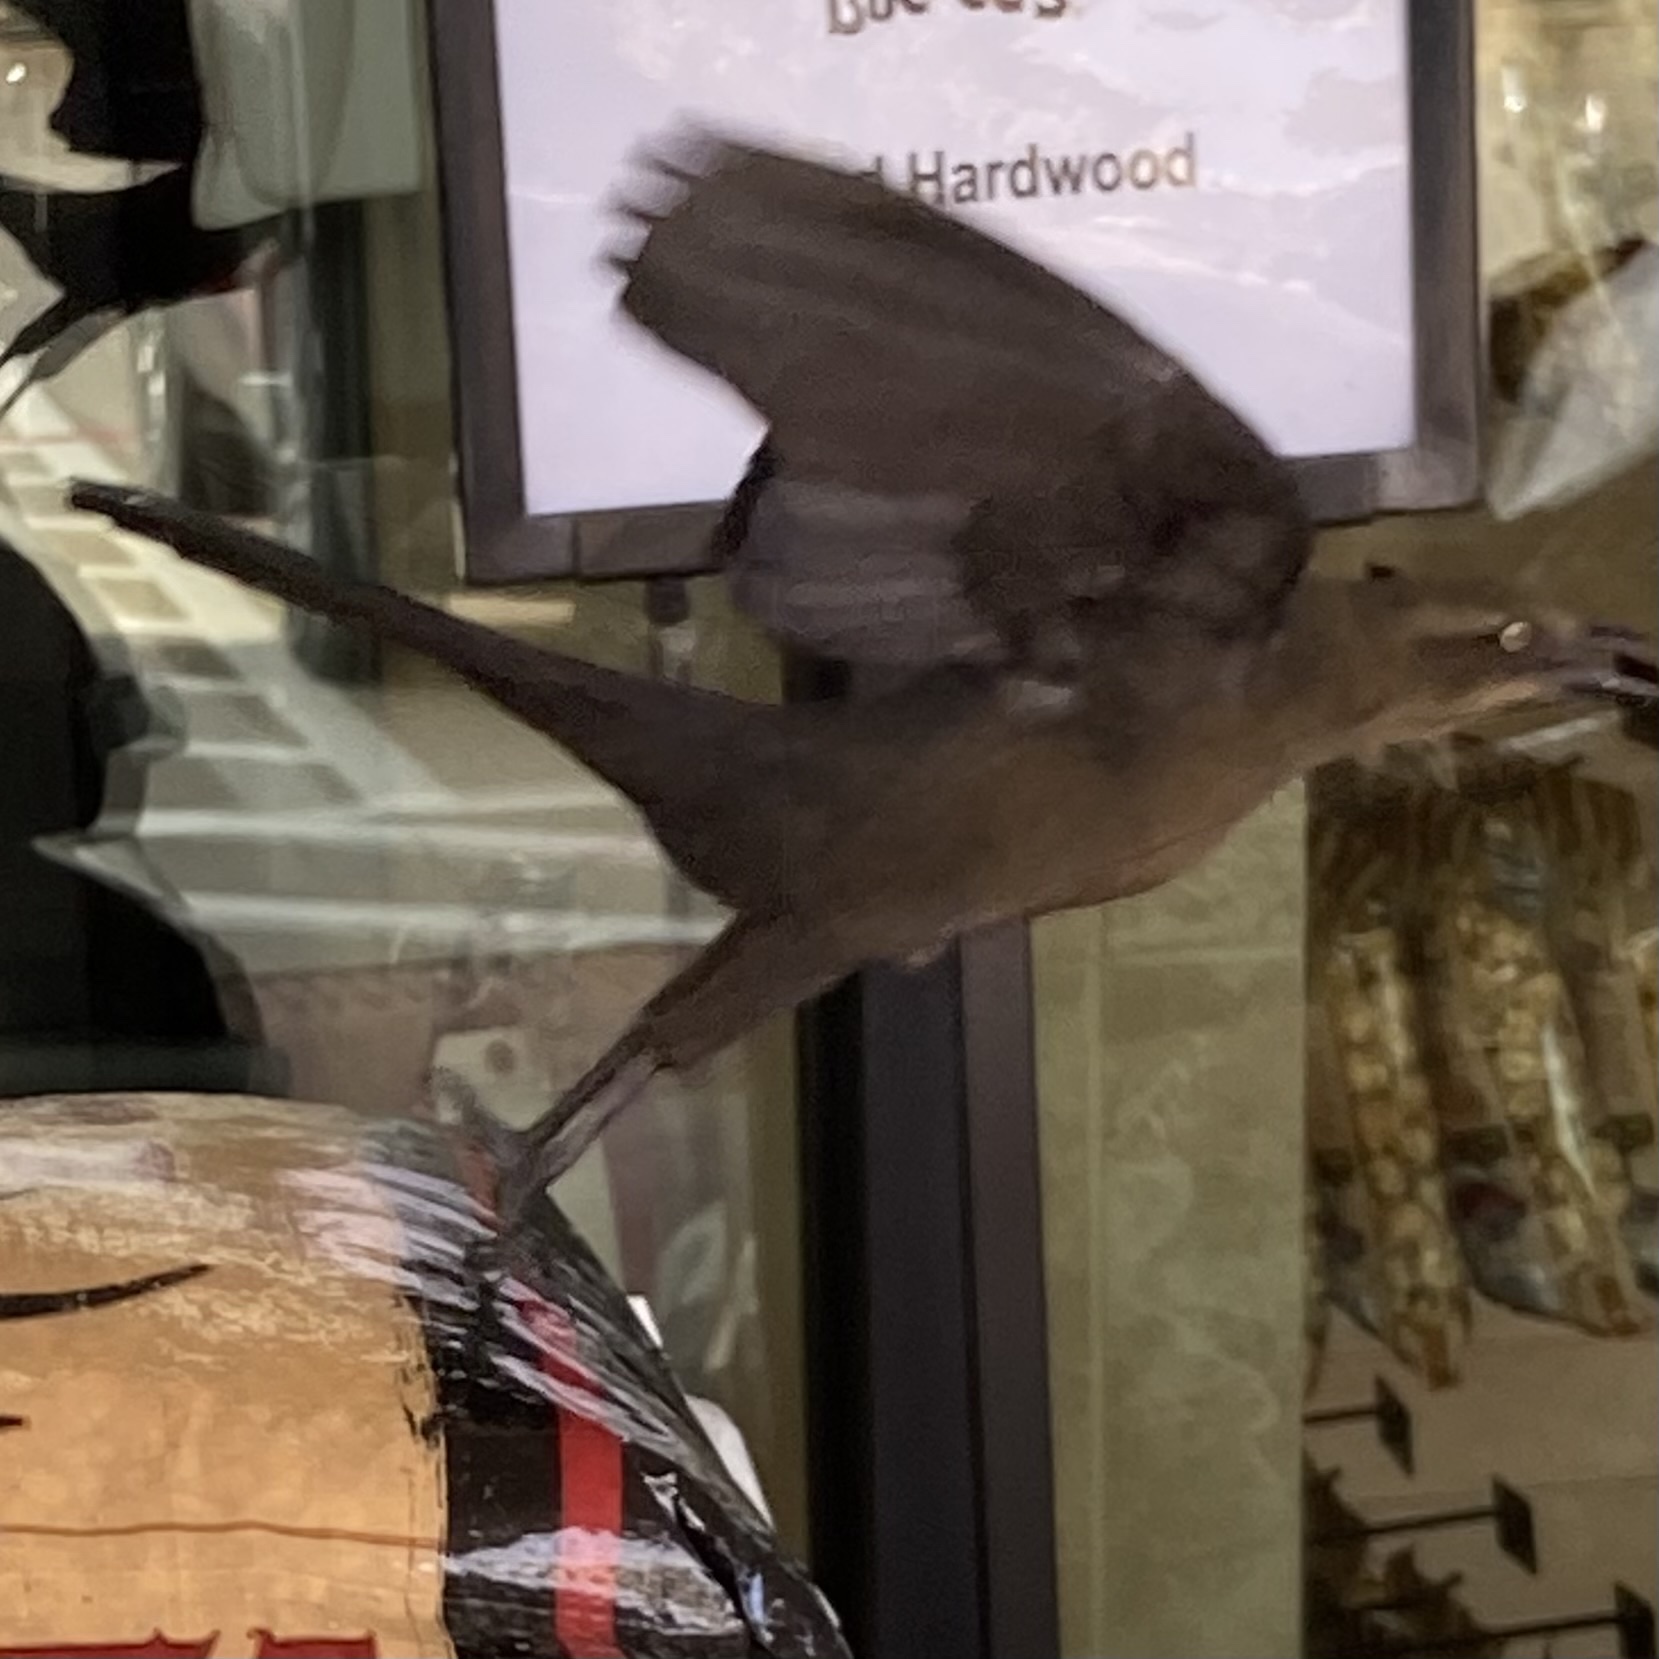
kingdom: Animalia
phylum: Chordata
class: Aves
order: Passeriformes
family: Icteridae
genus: Quiscalus
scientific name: Quiscalus mexicanus
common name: Great-tailed grackle
